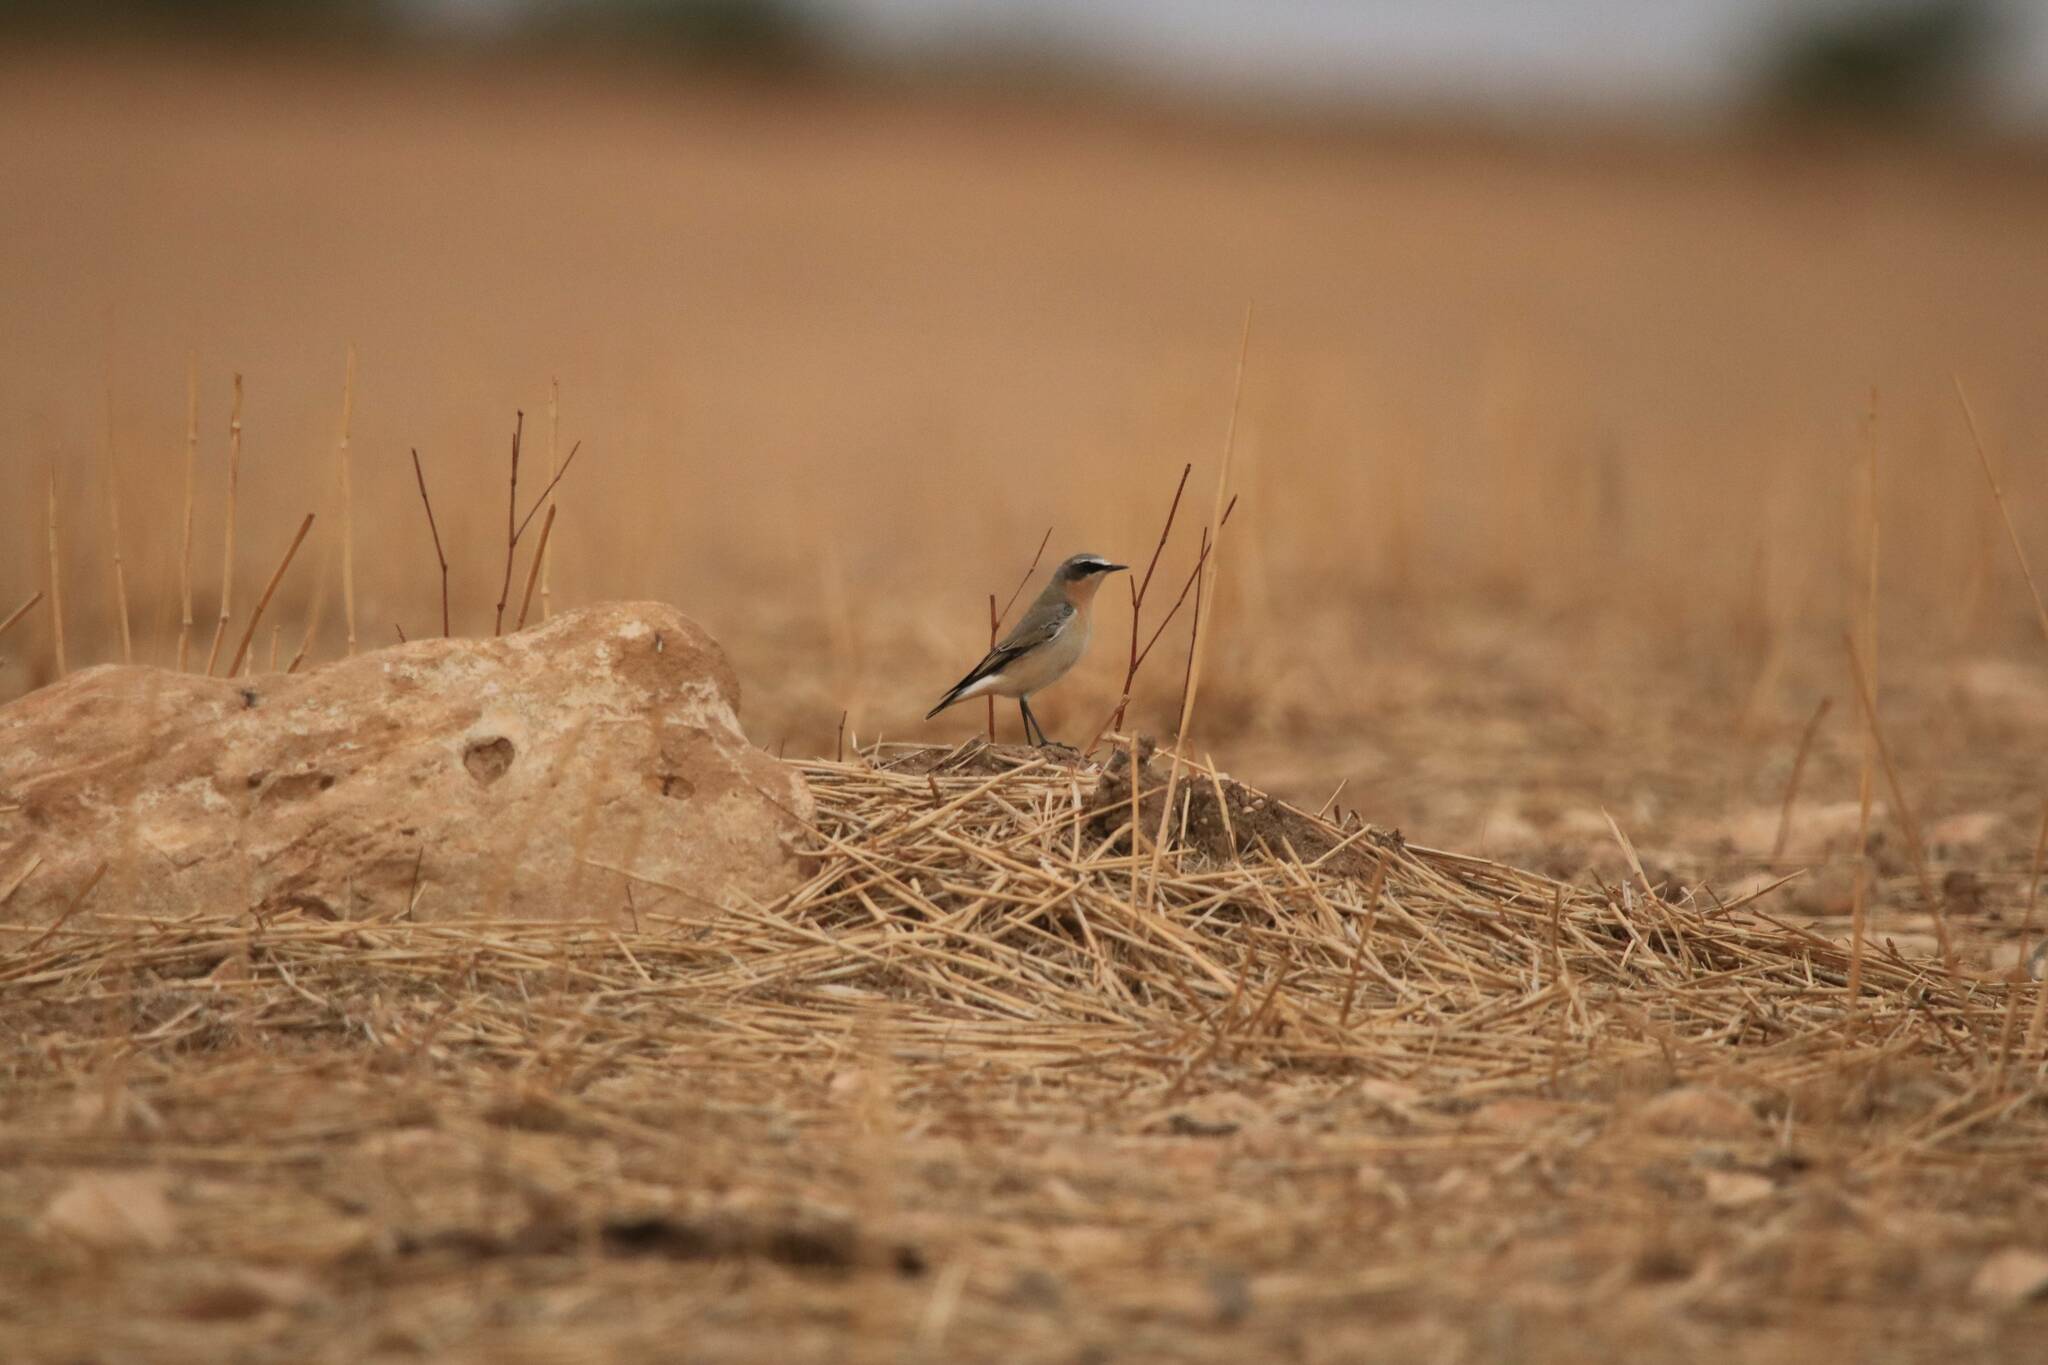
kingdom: Animalia
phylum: Chordata
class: Aves
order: Passeriformes
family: Muscicapidae
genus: Oenanthe
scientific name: Oenanthe oenanthe
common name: Northern wheatear
